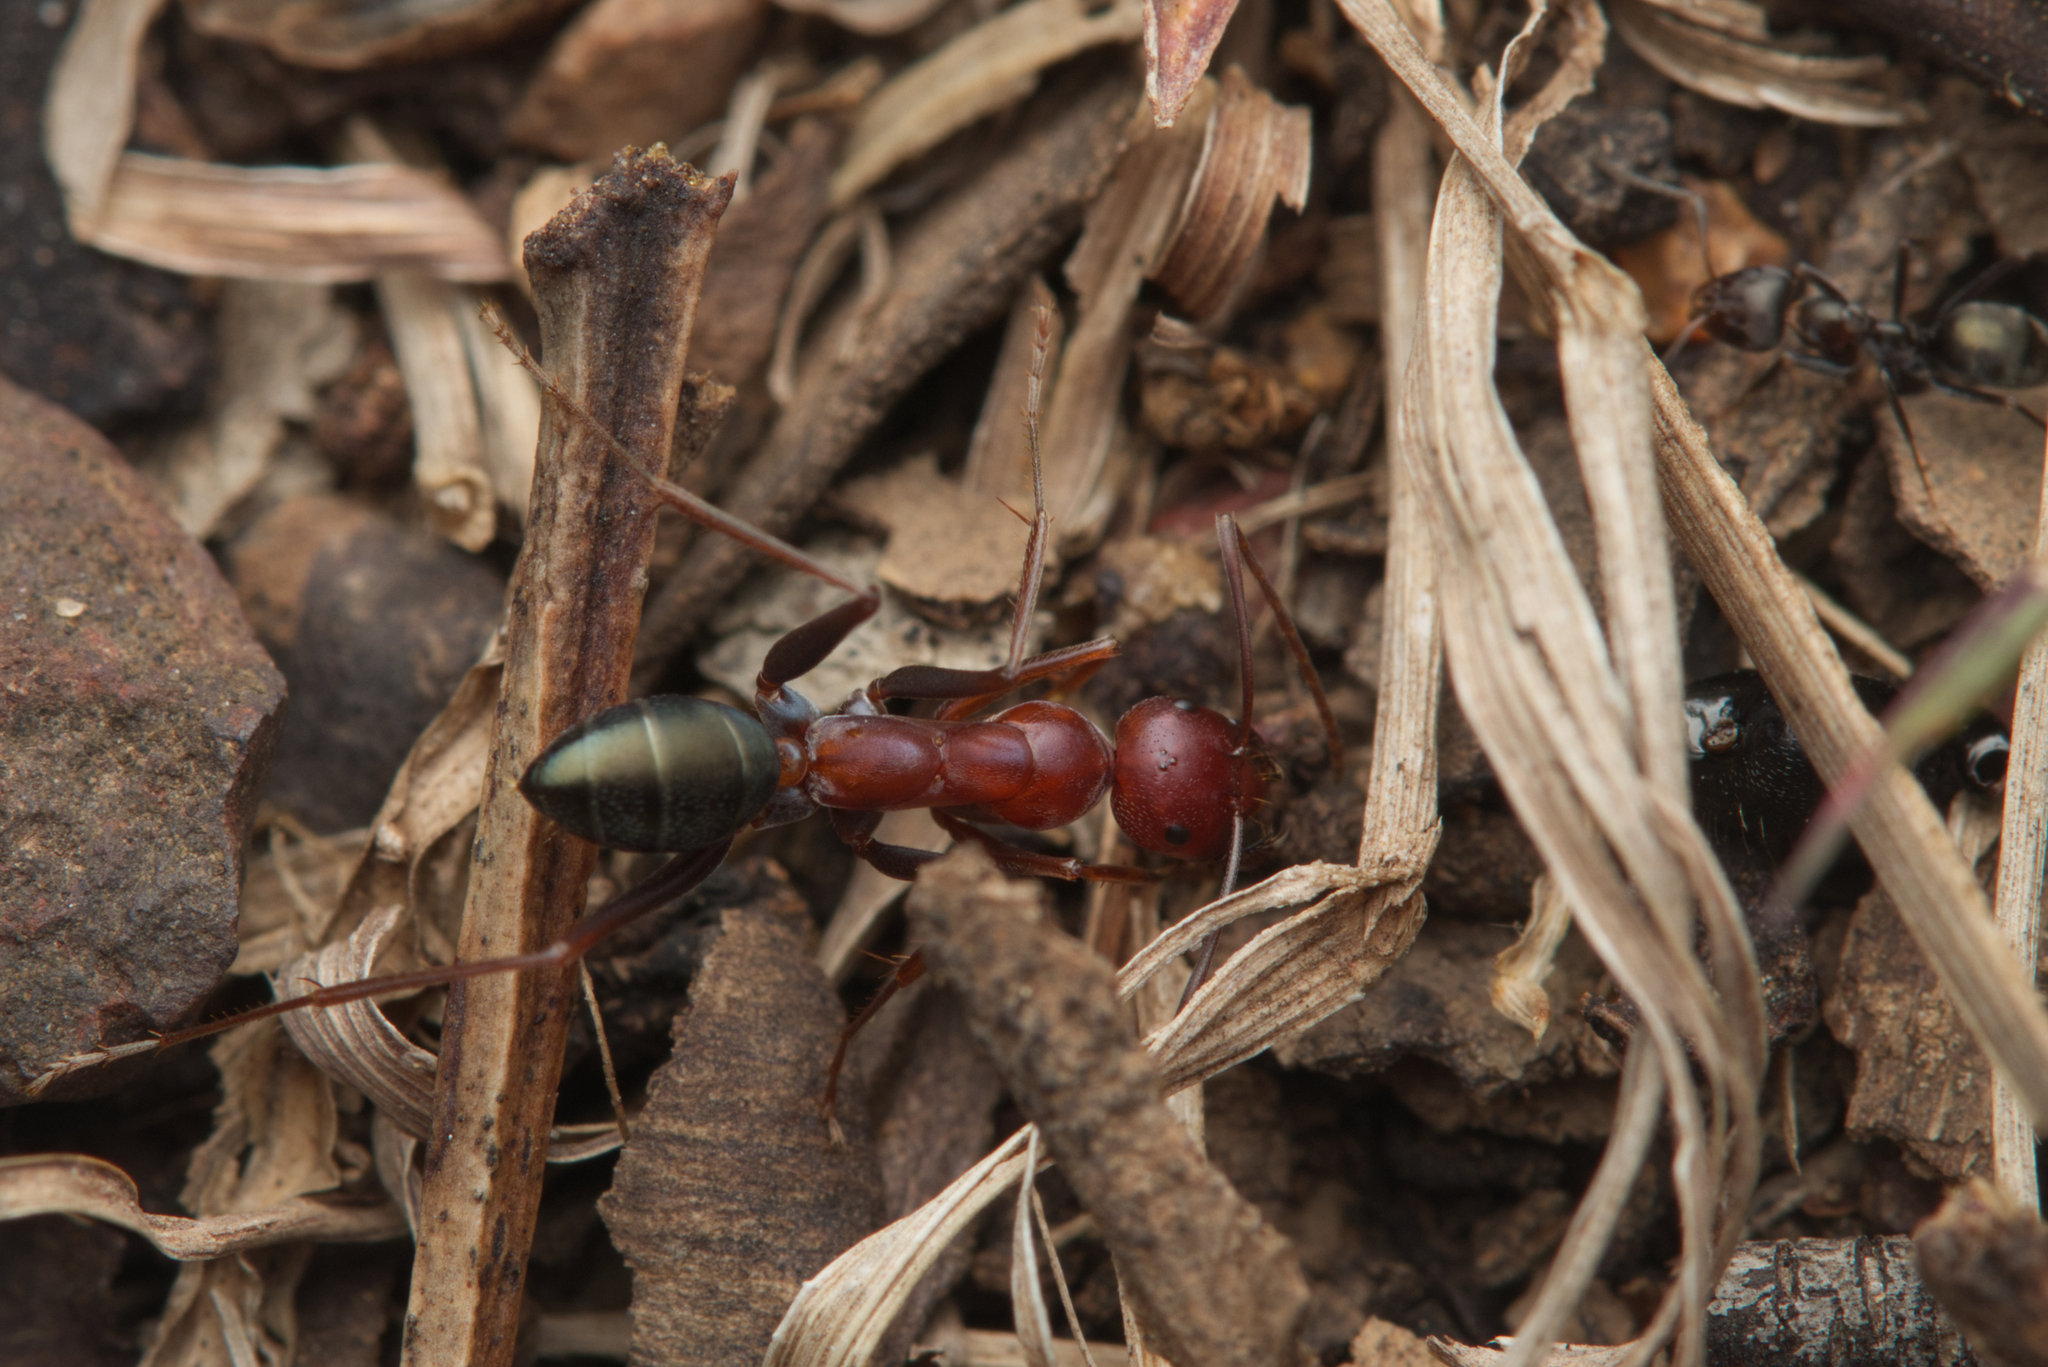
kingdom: Animalia
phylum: Arthropoda
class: Insecta
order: Hymenoptera
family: Formicidae
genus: Melophorus
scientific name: Melophorus rufoniger
